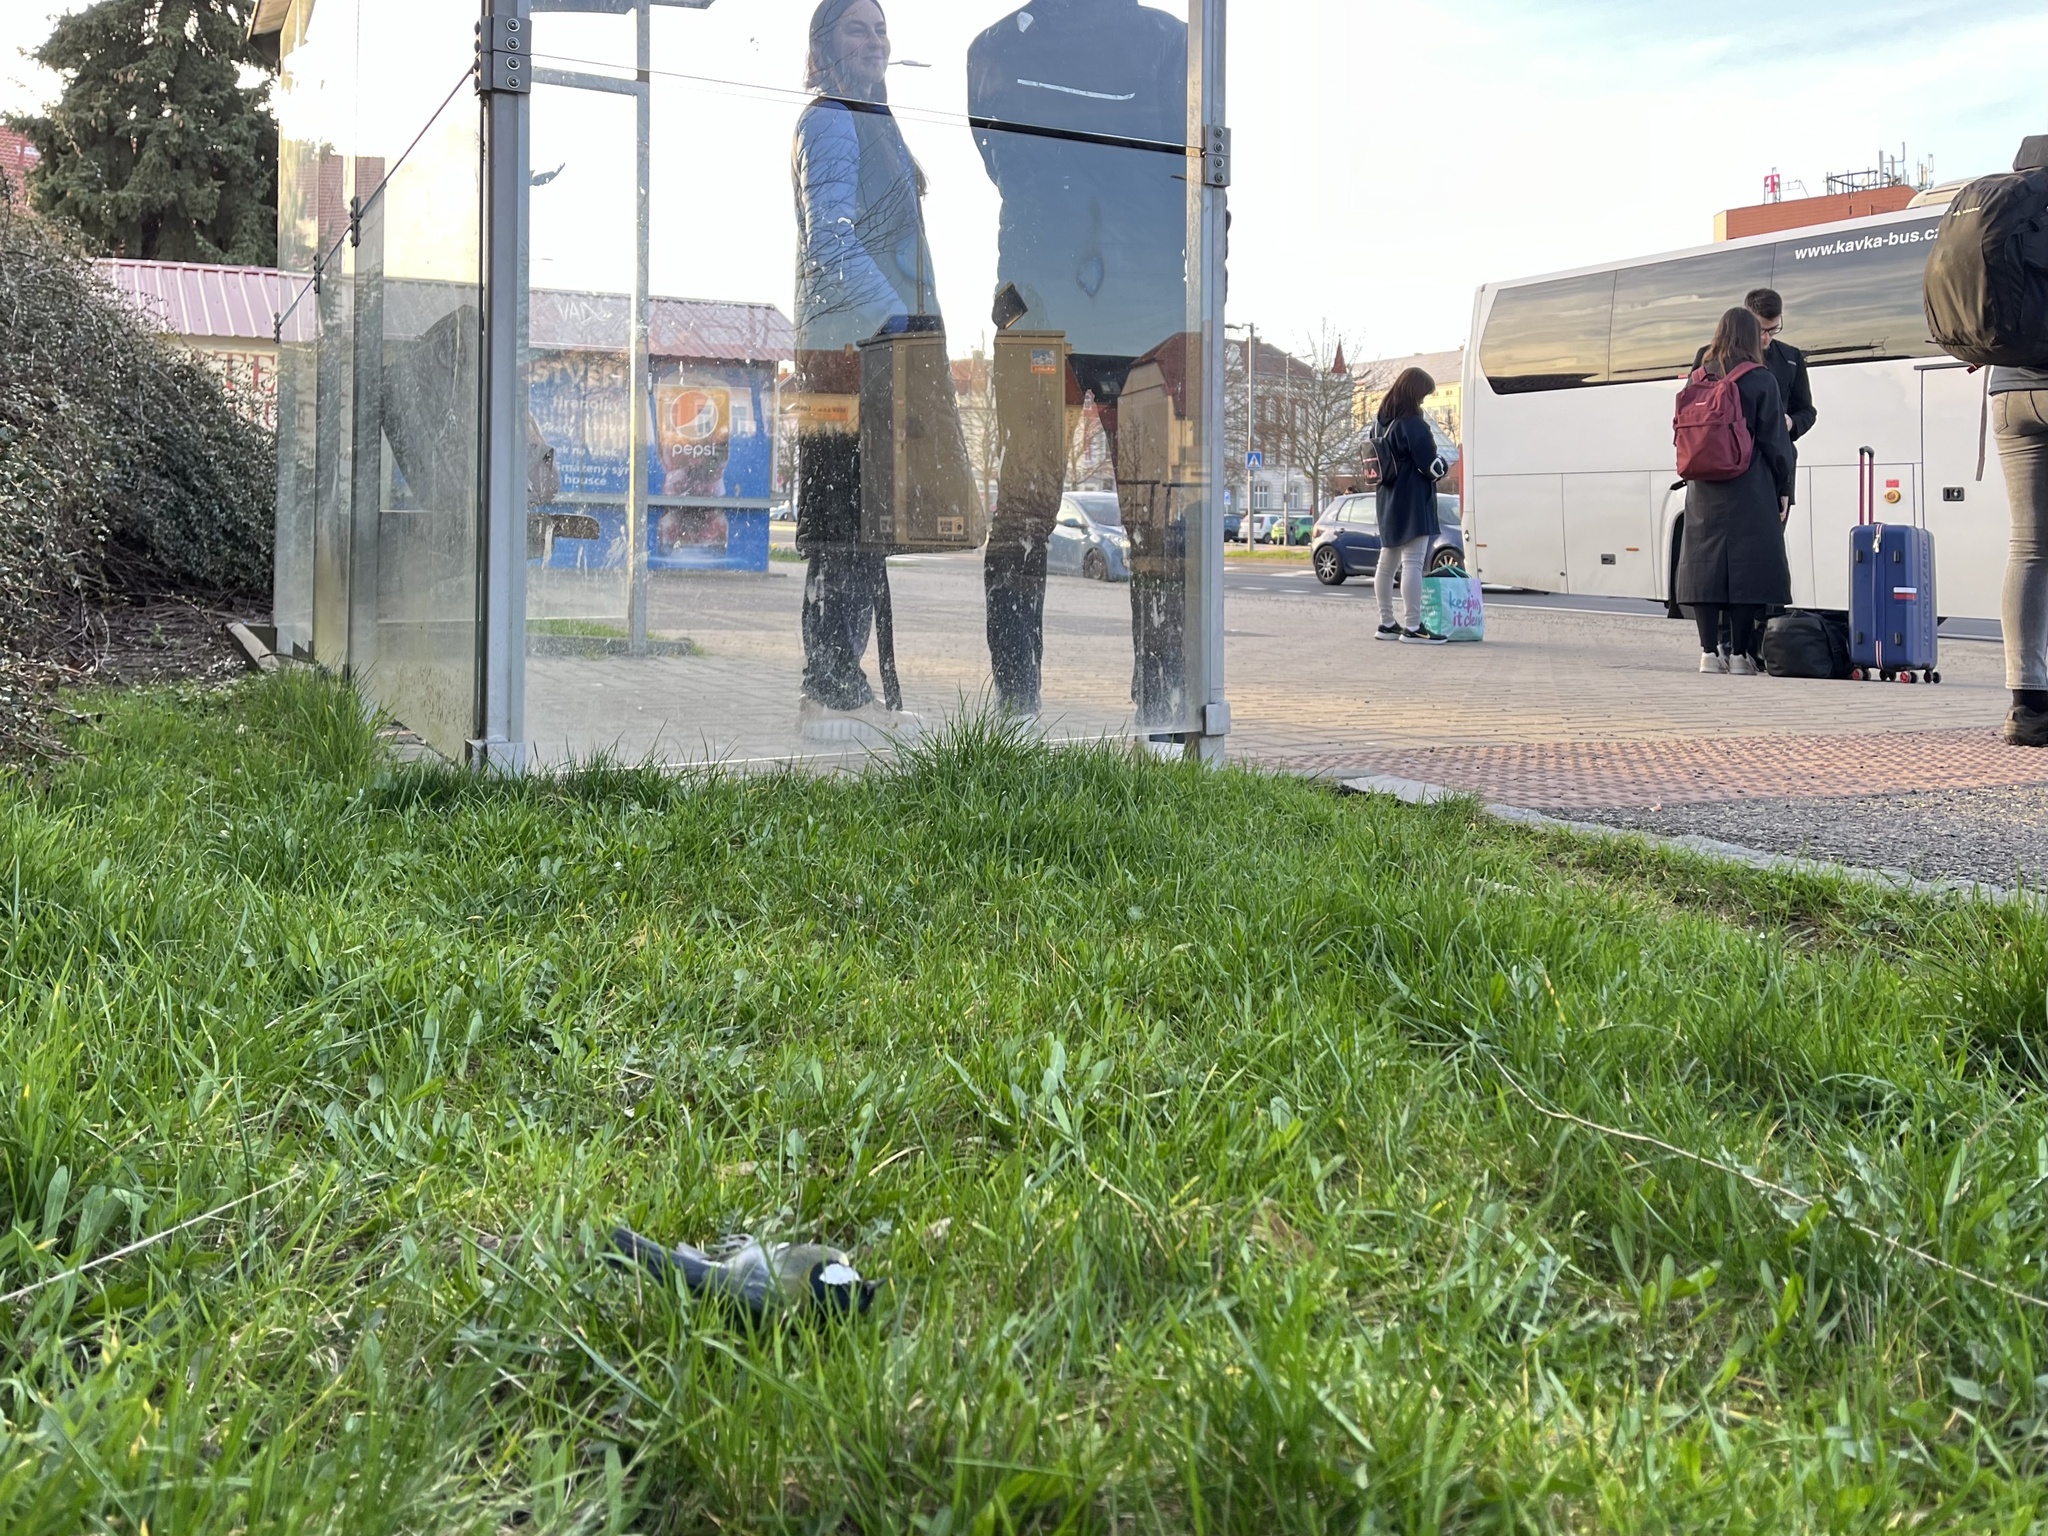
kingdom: Animalia
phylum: Chordata
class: Aves
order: Passeriformes
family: Paridae
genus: Parus
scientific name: Parus major
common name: Great tit
